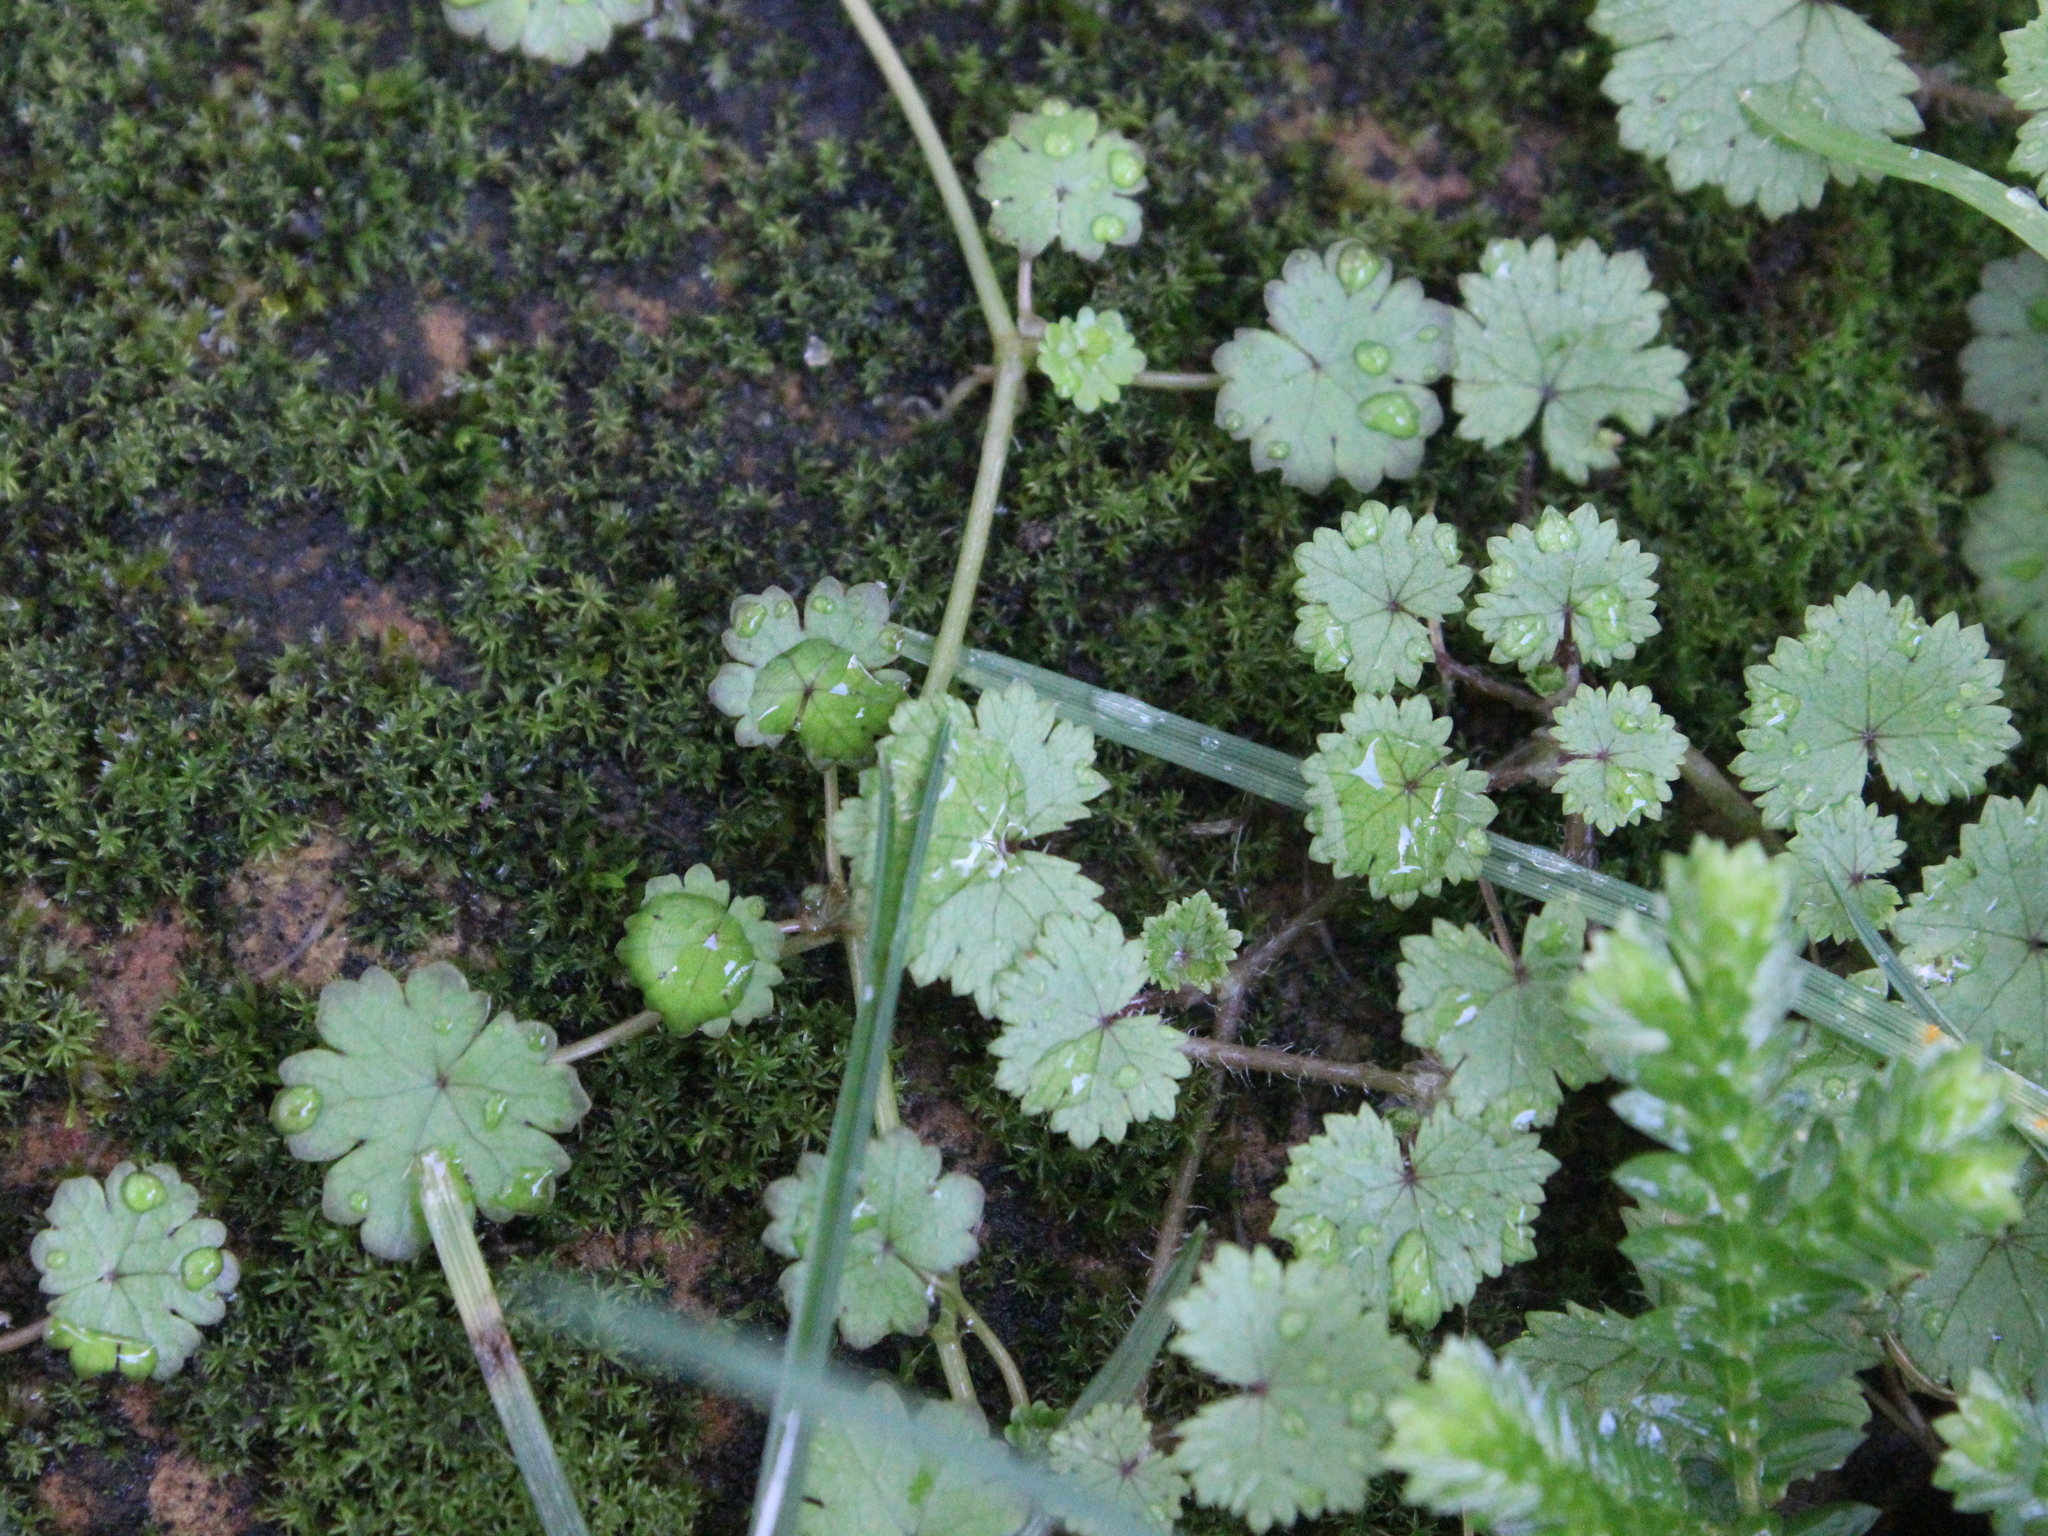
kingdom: Plantae
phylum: Tracheophyta
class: Magnoliopsida
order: Apiales
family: Araliaceae
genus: Hydrocotyle
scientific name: Hydrocotyle moschata
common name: Hairy pennywort
